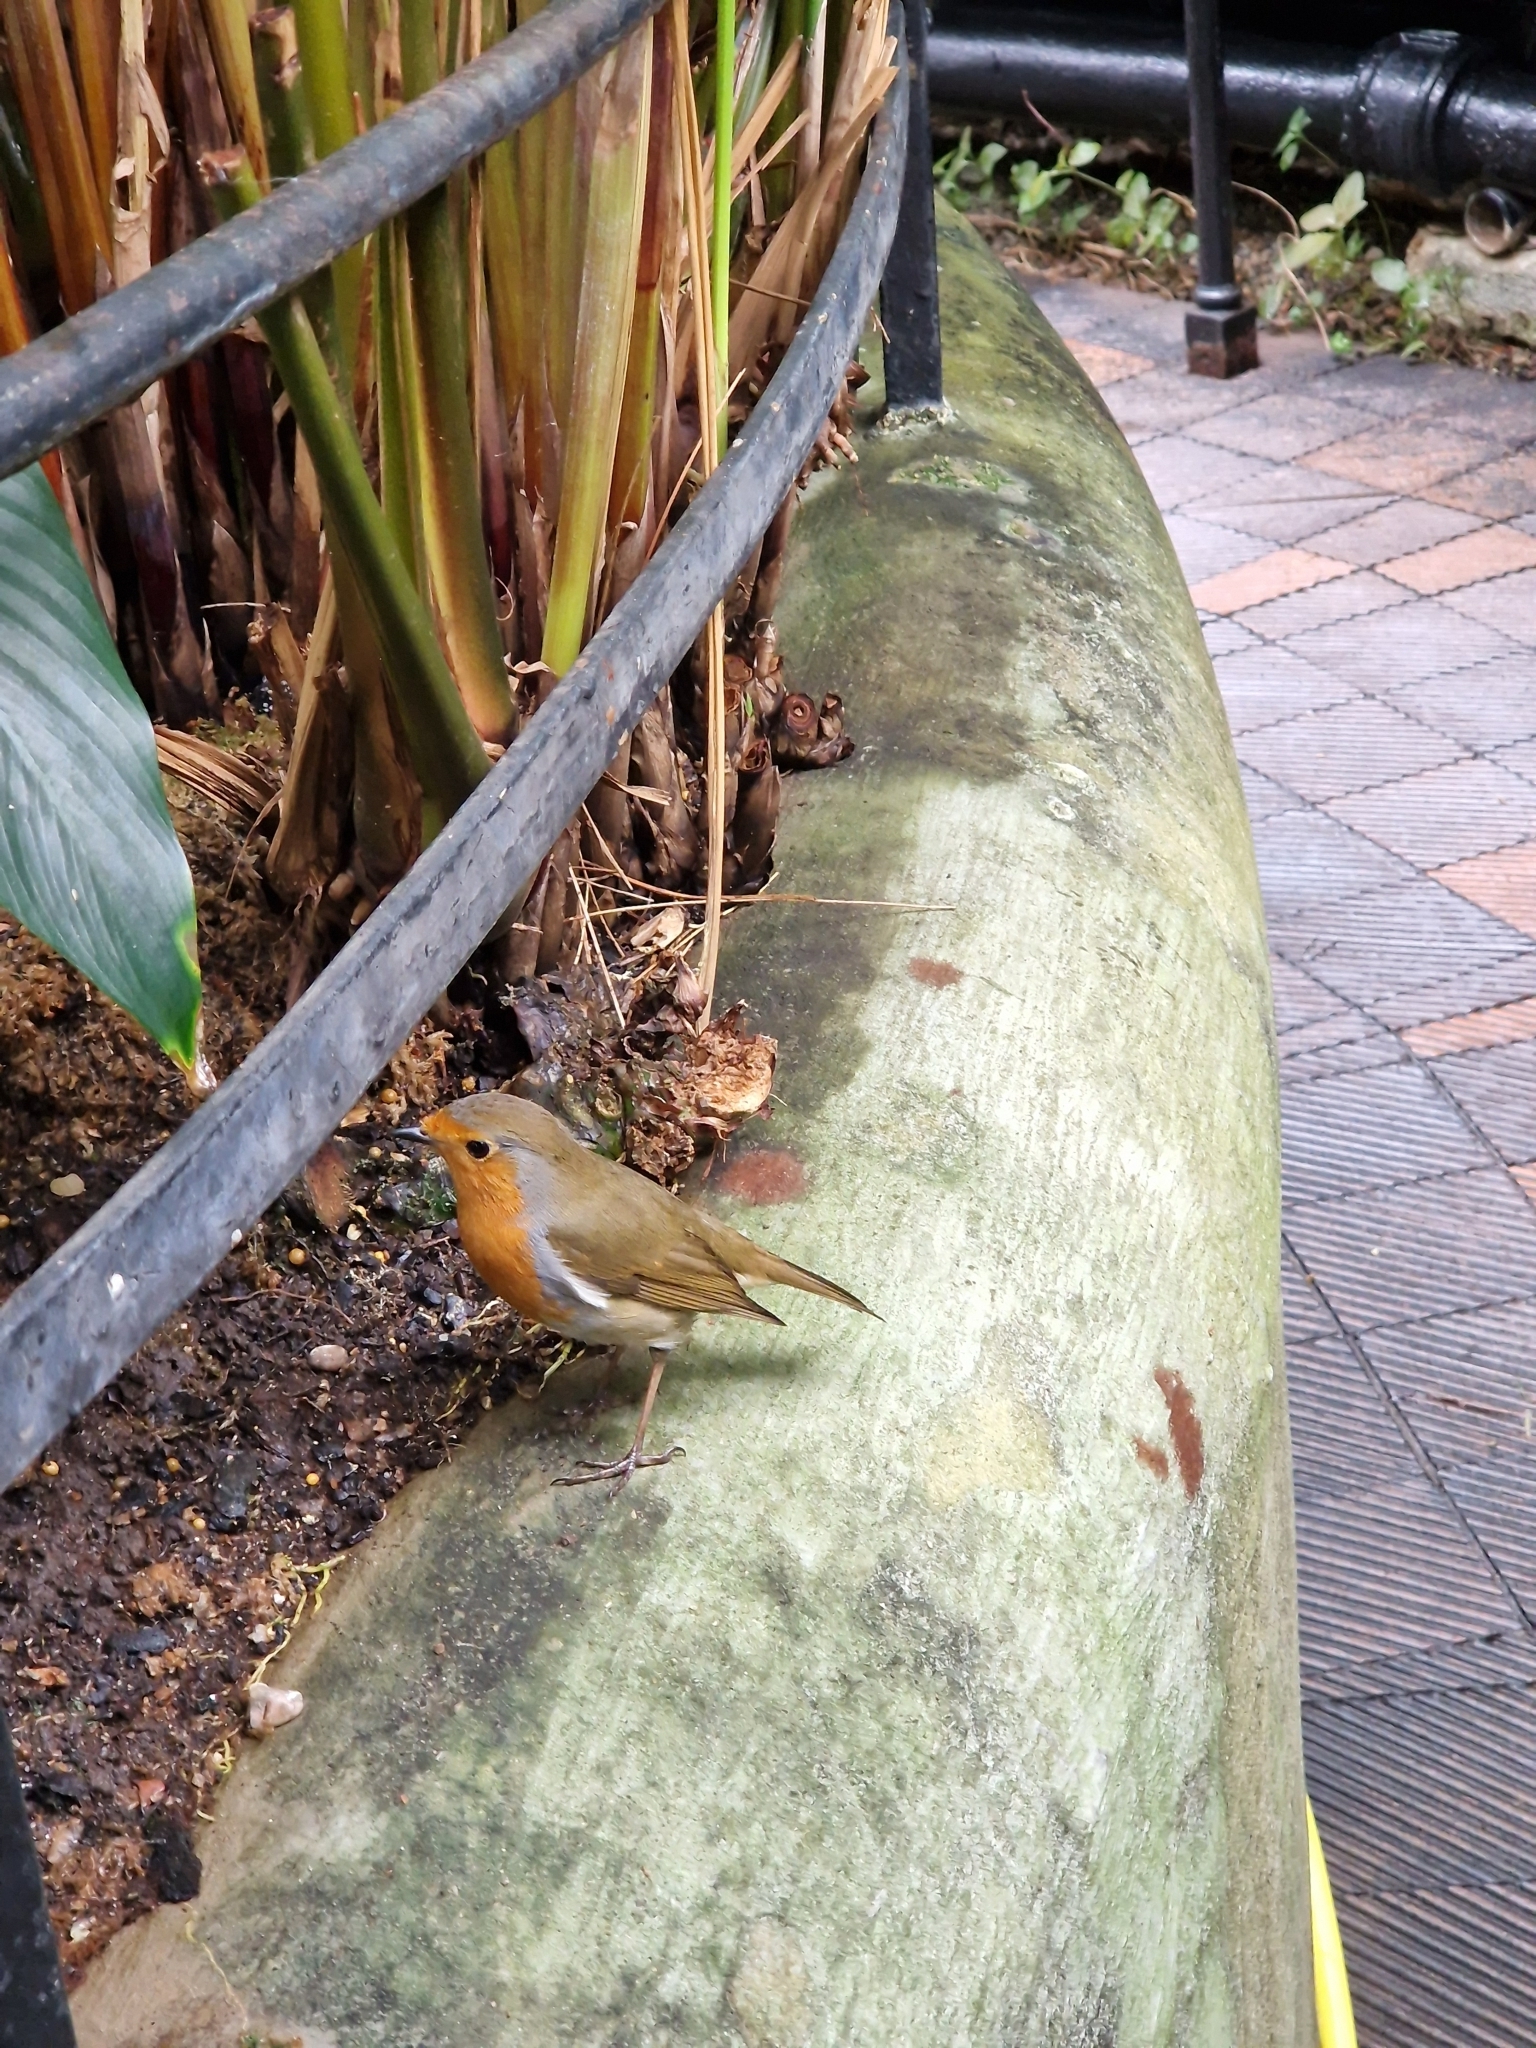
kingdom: Animalia
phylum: Chordata
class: Aves
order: Passeriformes
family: Muscicapidae
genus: Erithacus
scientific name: Erithacus rubecula
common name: European robin
